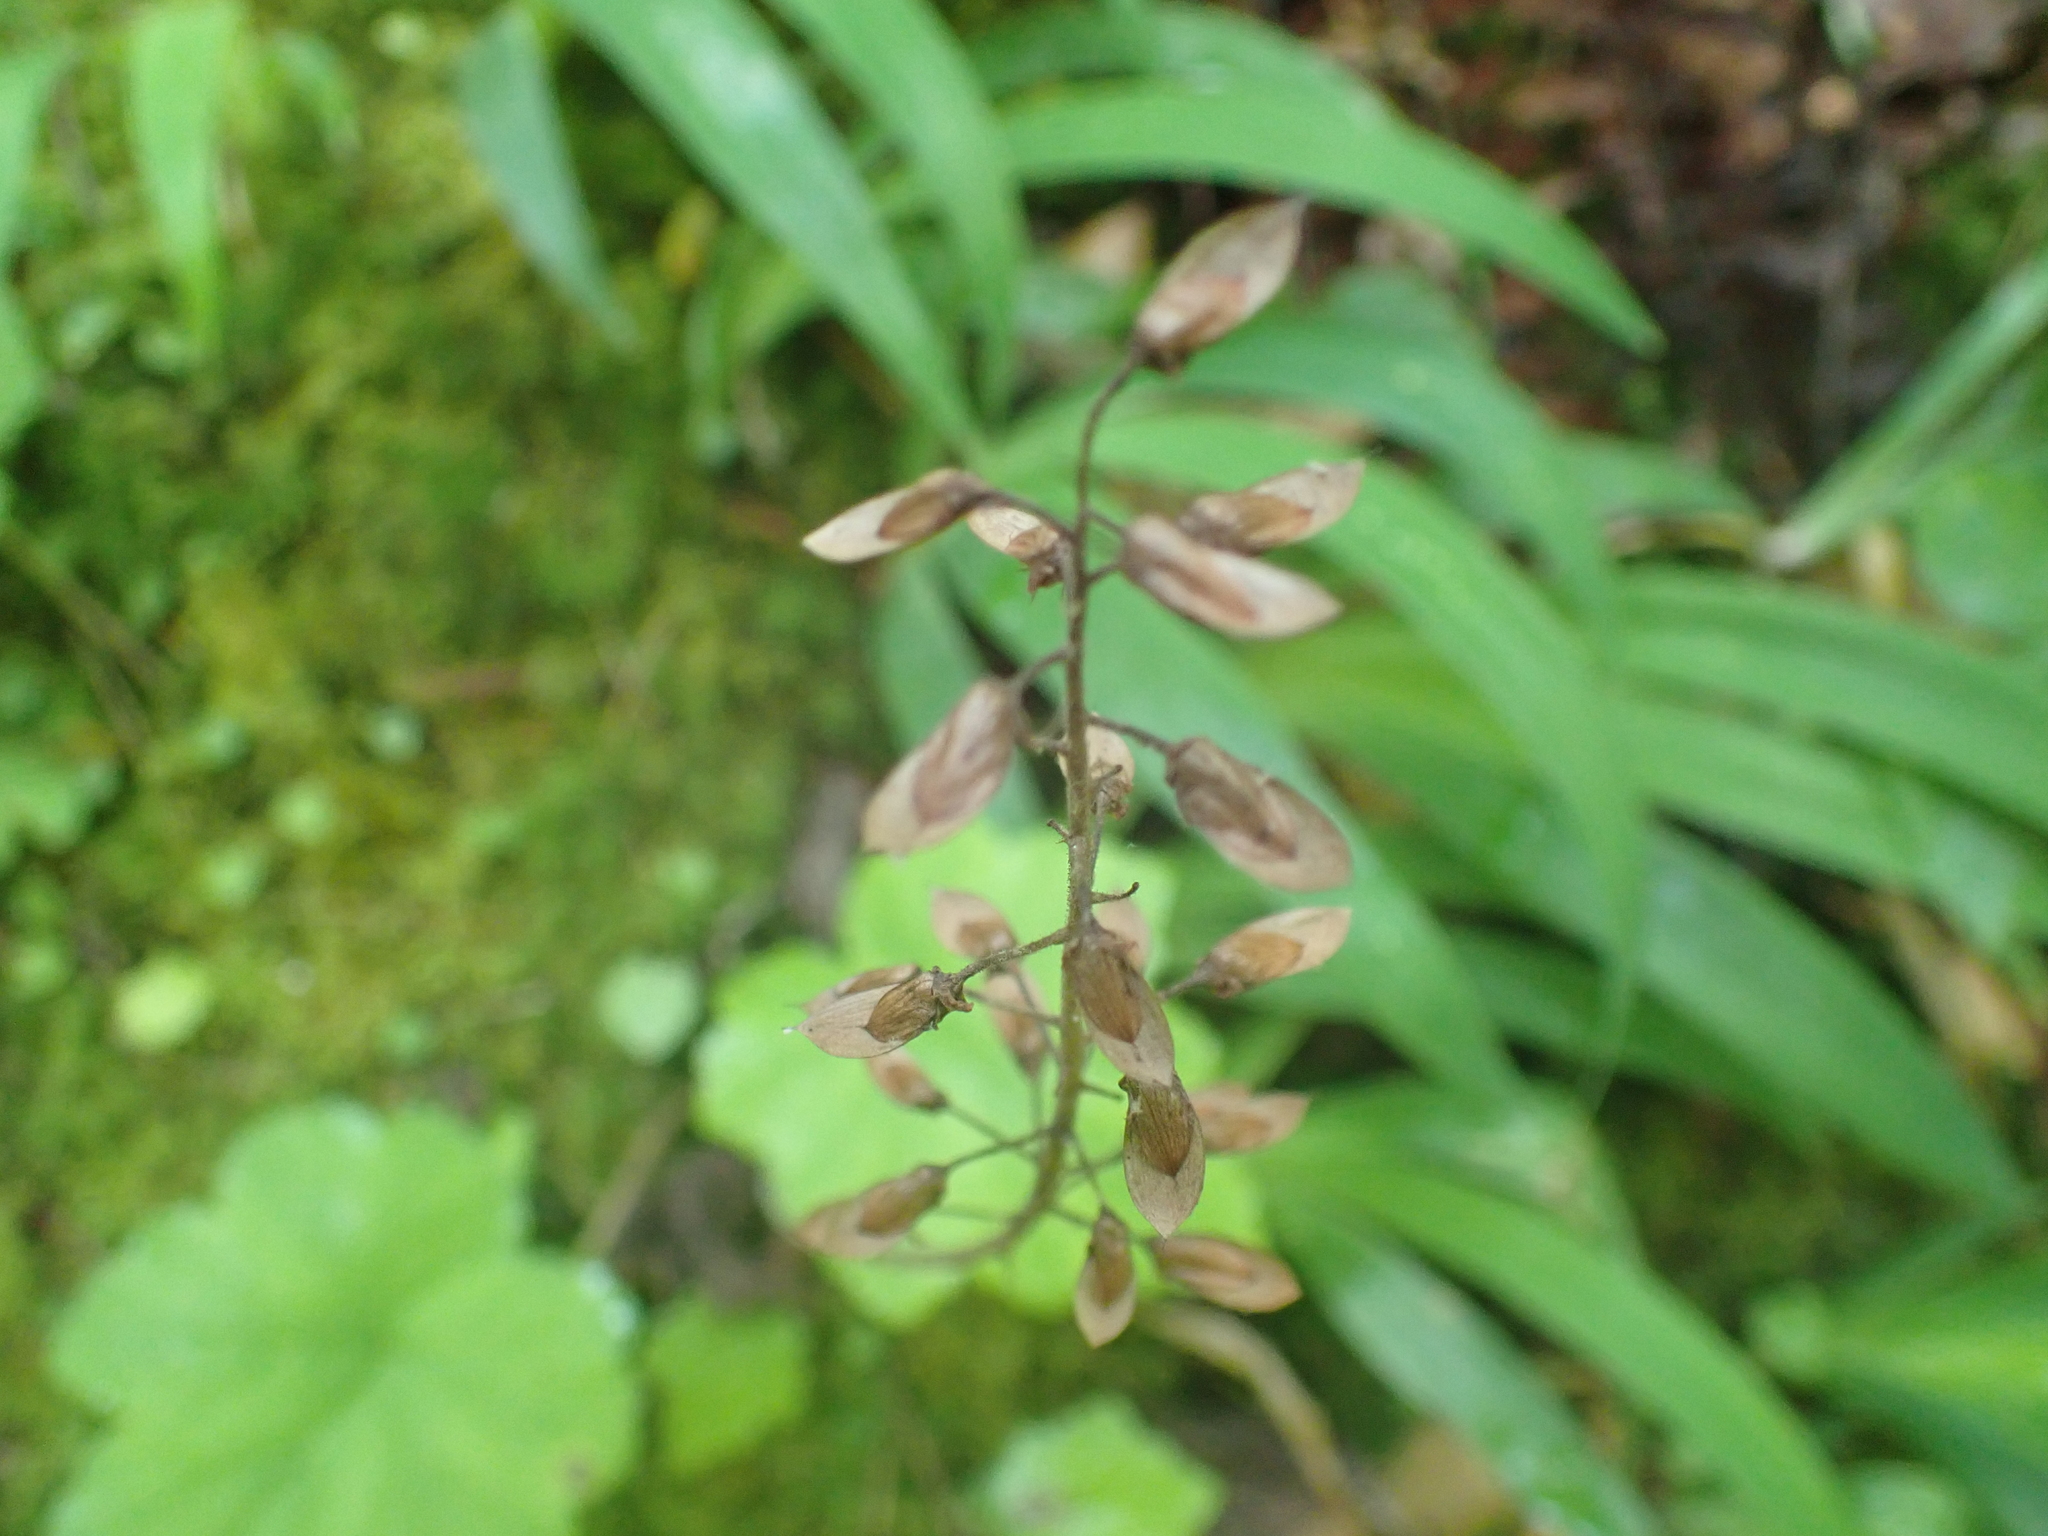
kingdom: Plantae
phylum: Tracheophyta
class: Magnoliopsida
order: Saxifragales
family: Saxifragaceae
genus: Tiarella
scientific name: Tiarella stolonifera
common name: Stoloniferous foamflower
